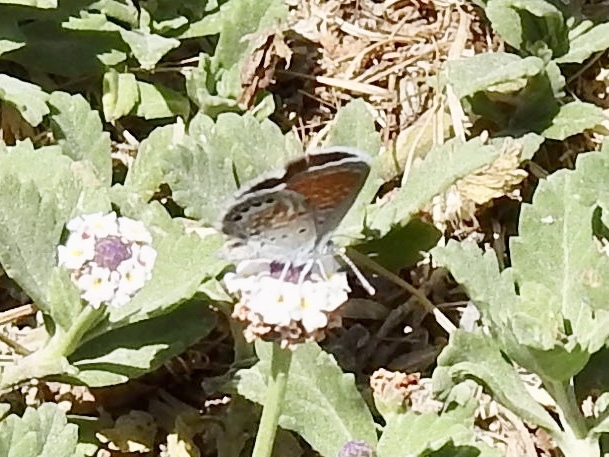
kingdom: Animalia
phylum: Arthropoda
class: Insecta
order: Lepidoptera
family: Lycaenidae
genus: Brephidium
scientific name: Brephidium exilis
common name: Pygmy blue
